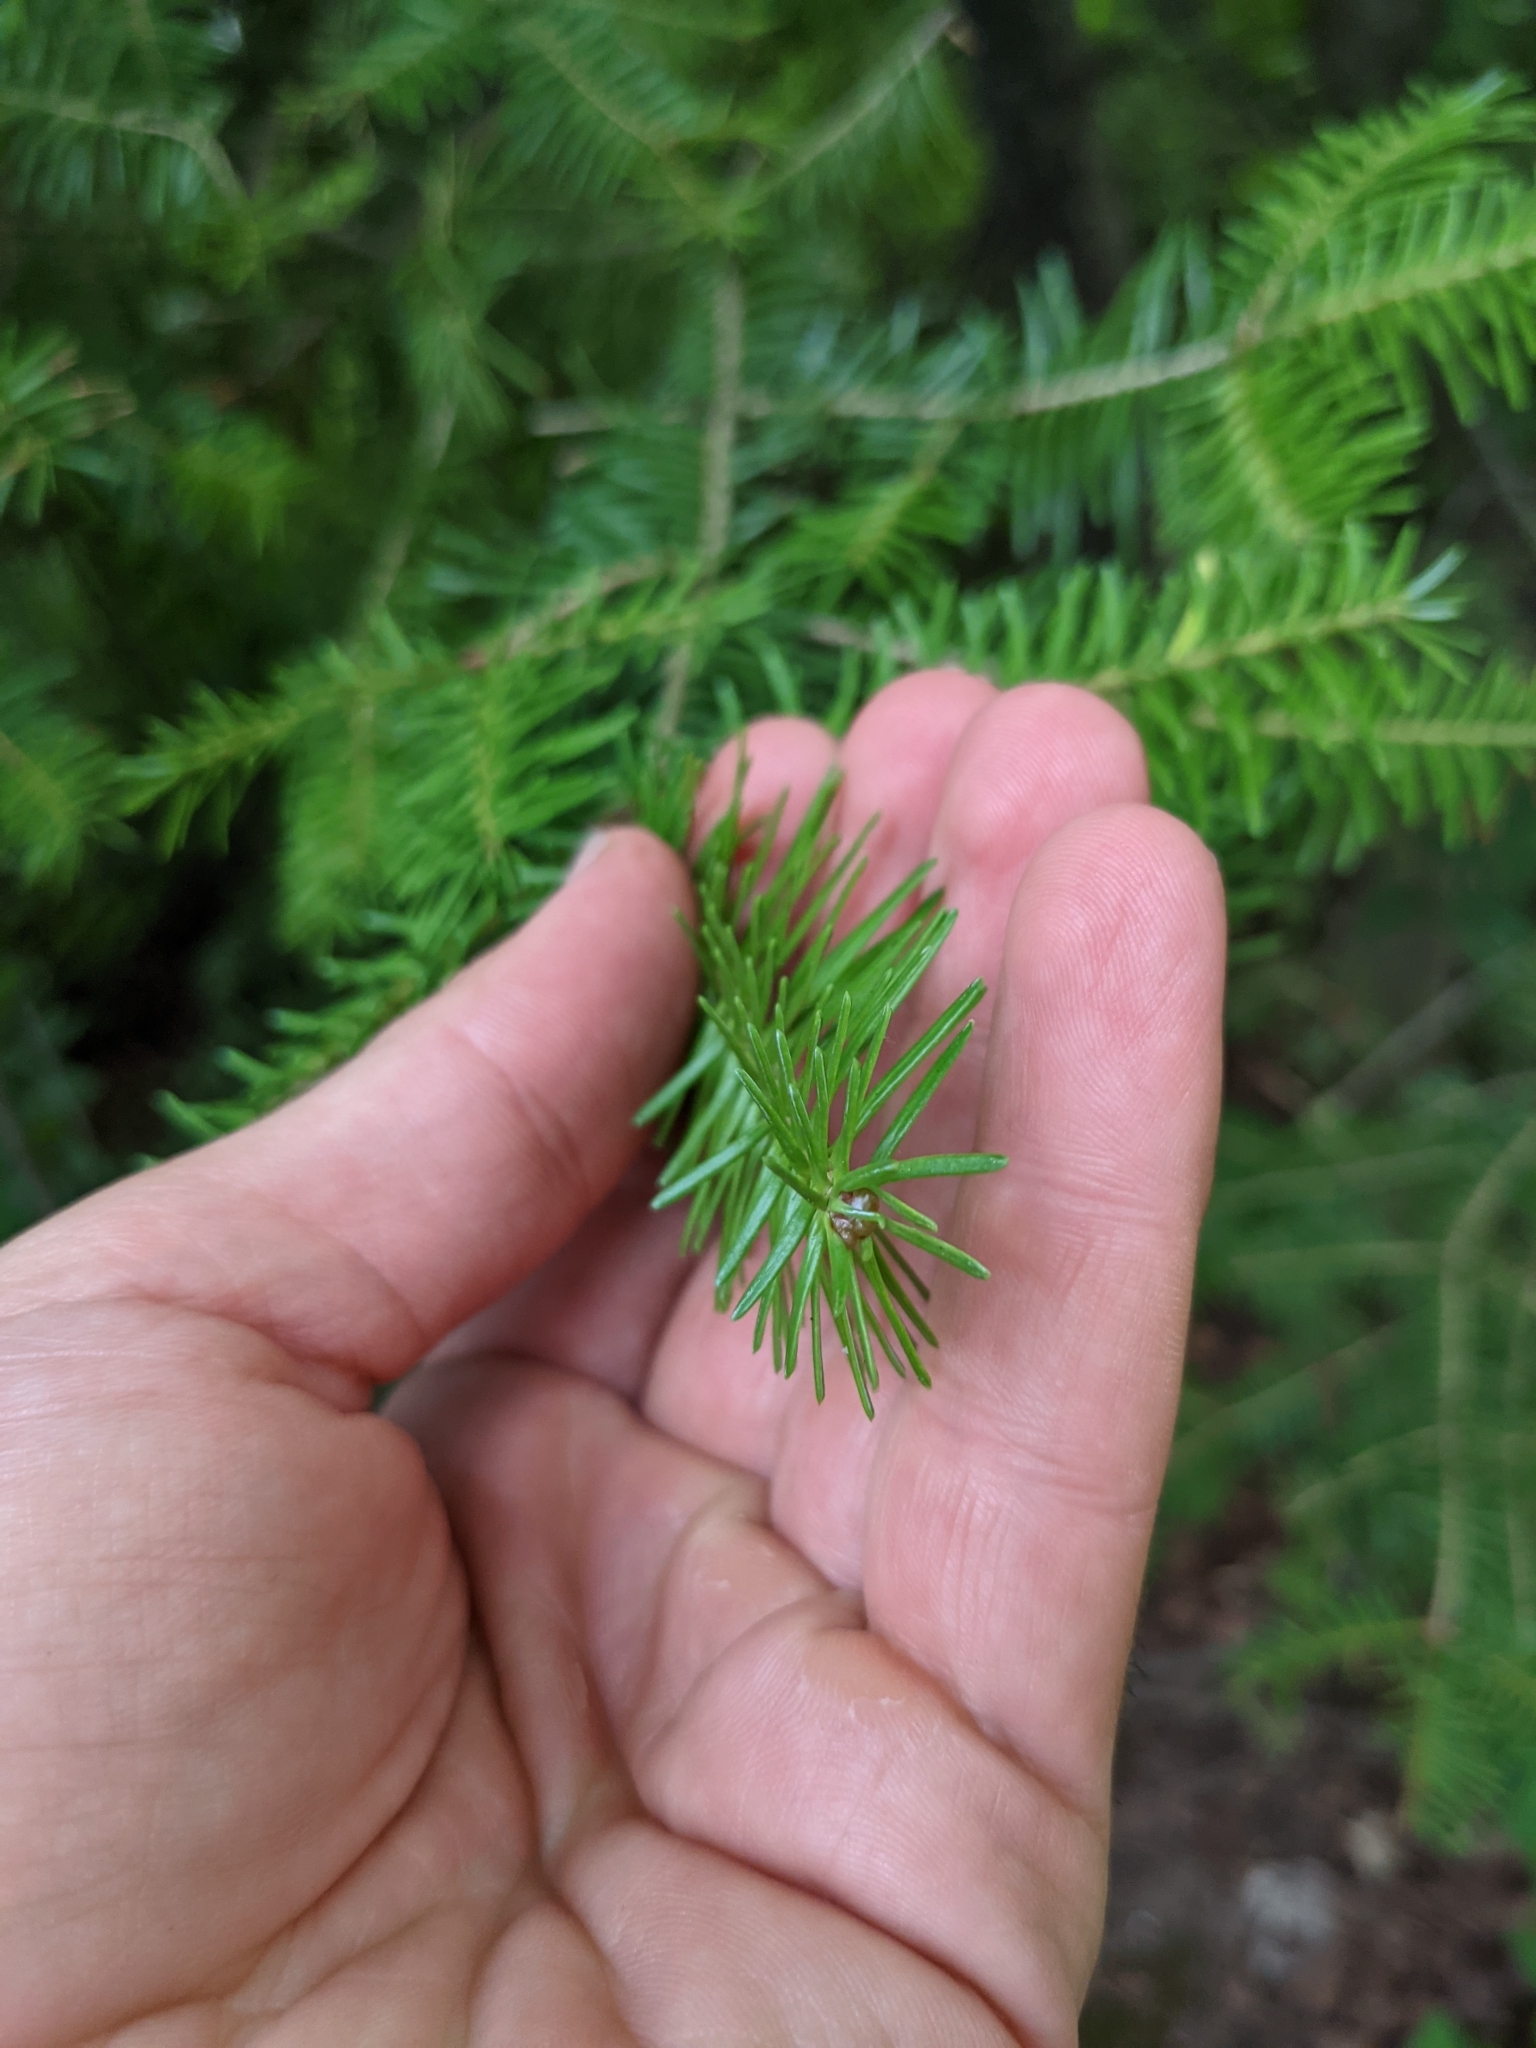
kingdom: Plantae
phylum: Tracheophyta
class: Pinopsida
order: Pinales
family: Pinaceae
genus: Abies
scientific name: Abies balsamea
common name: Balsam fir
